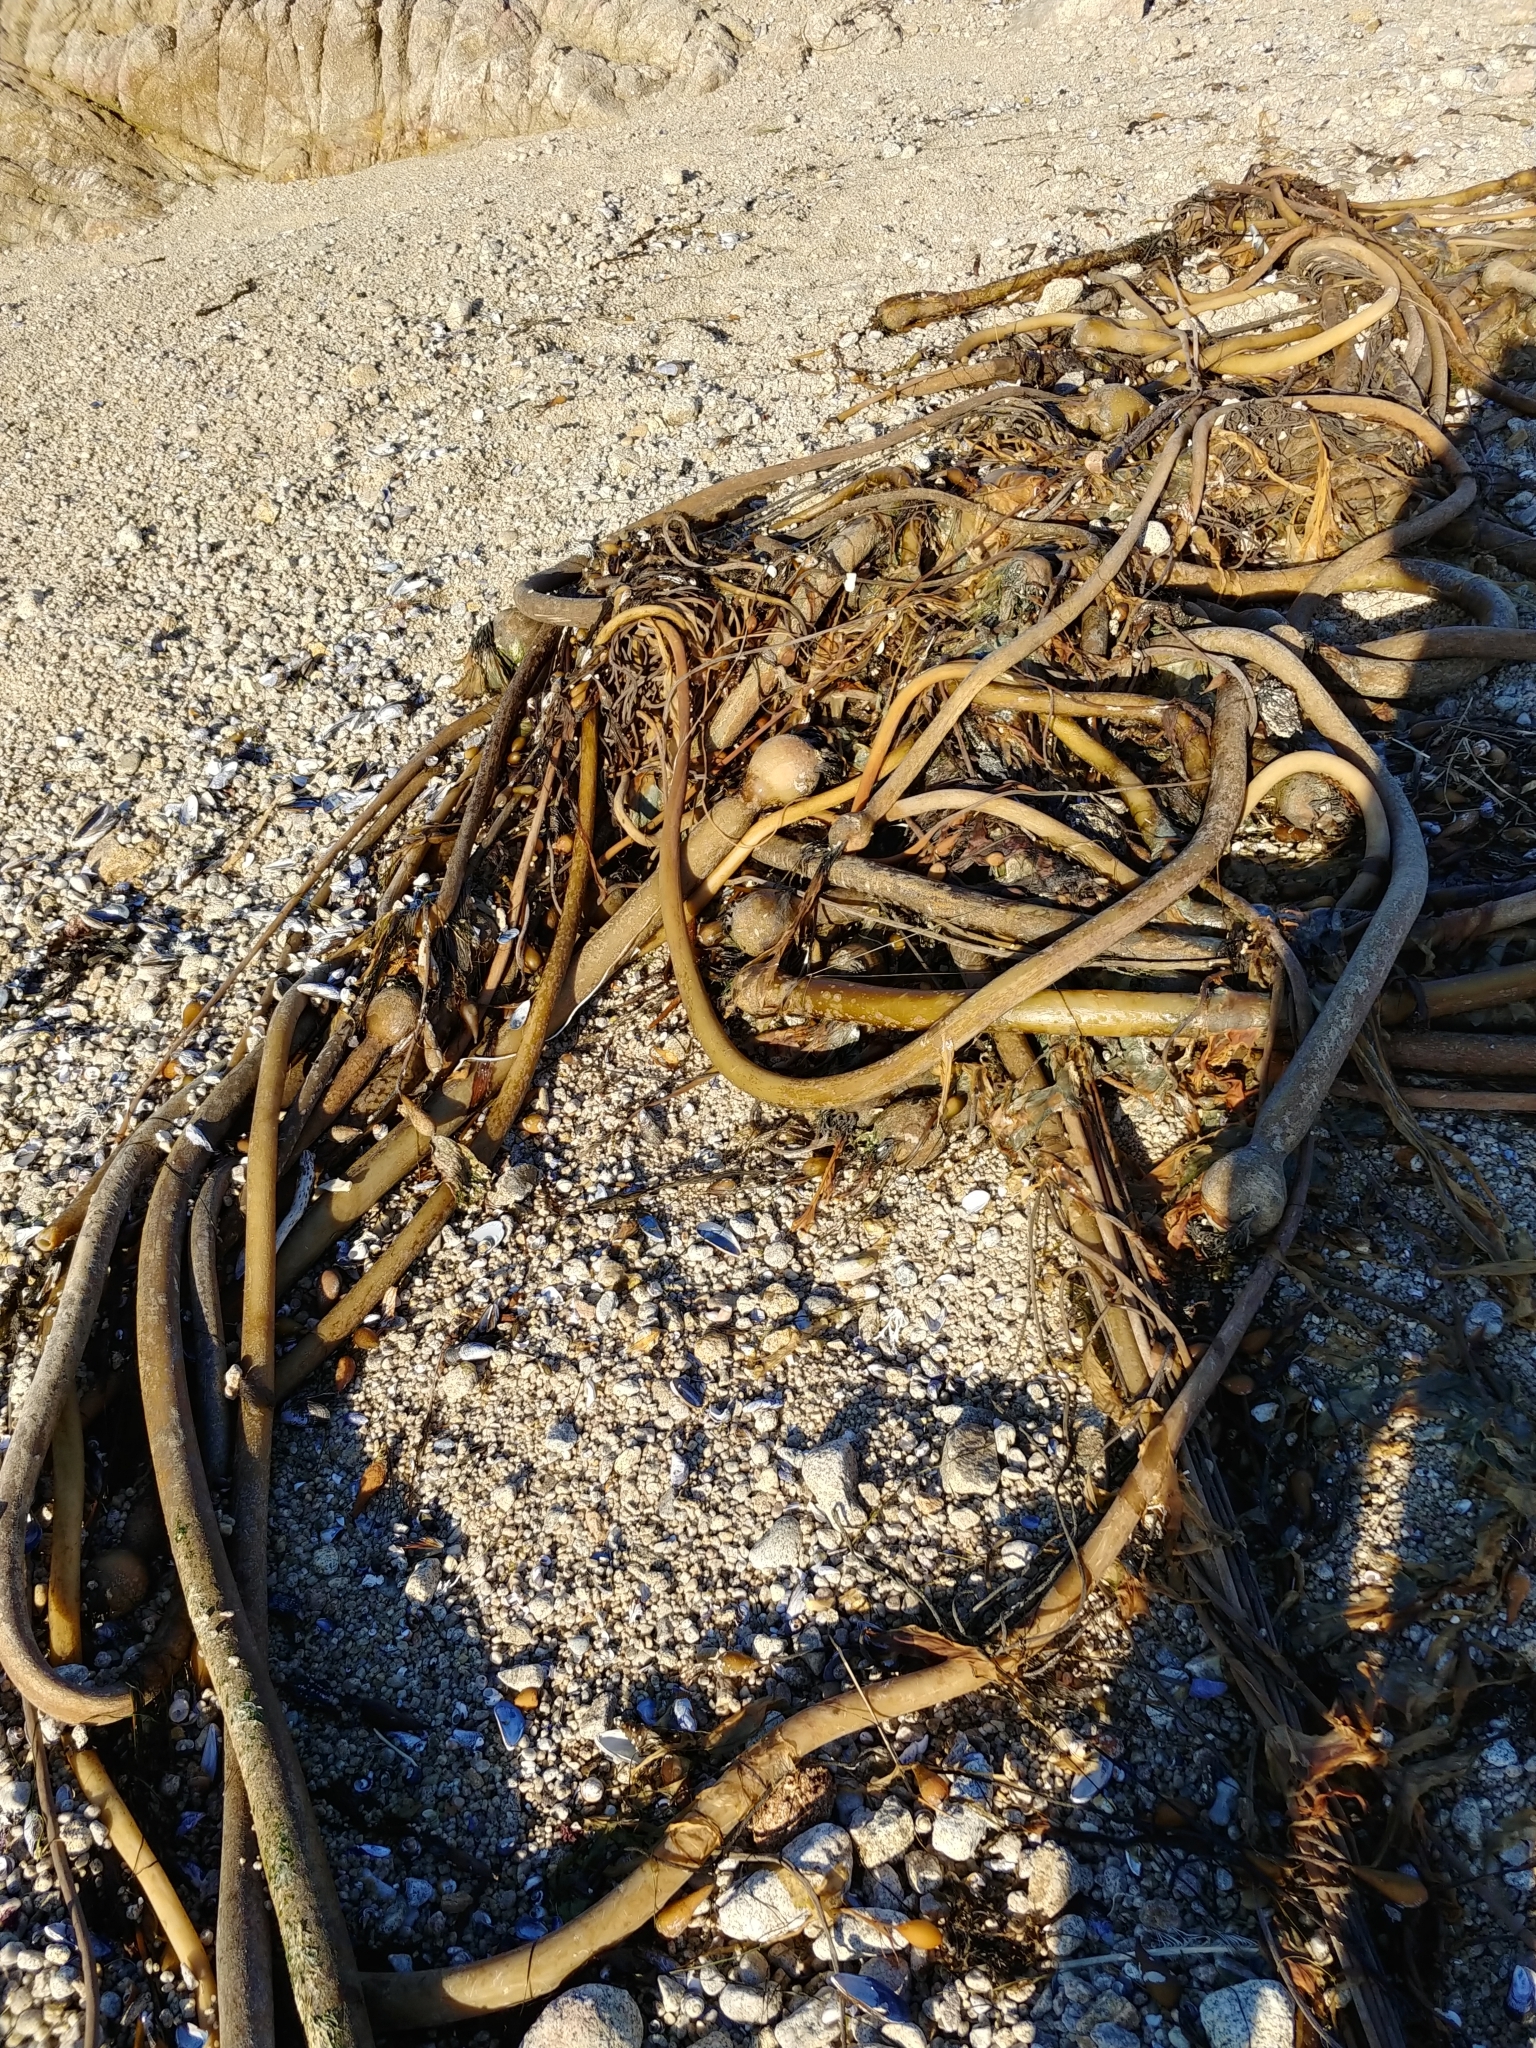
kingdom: Chromista
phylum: Ochrophyta
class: Phaeophyceae
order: Laminariales
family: Laminariaceae
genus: Nereocystis
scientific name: Nereocystis luetkeana
